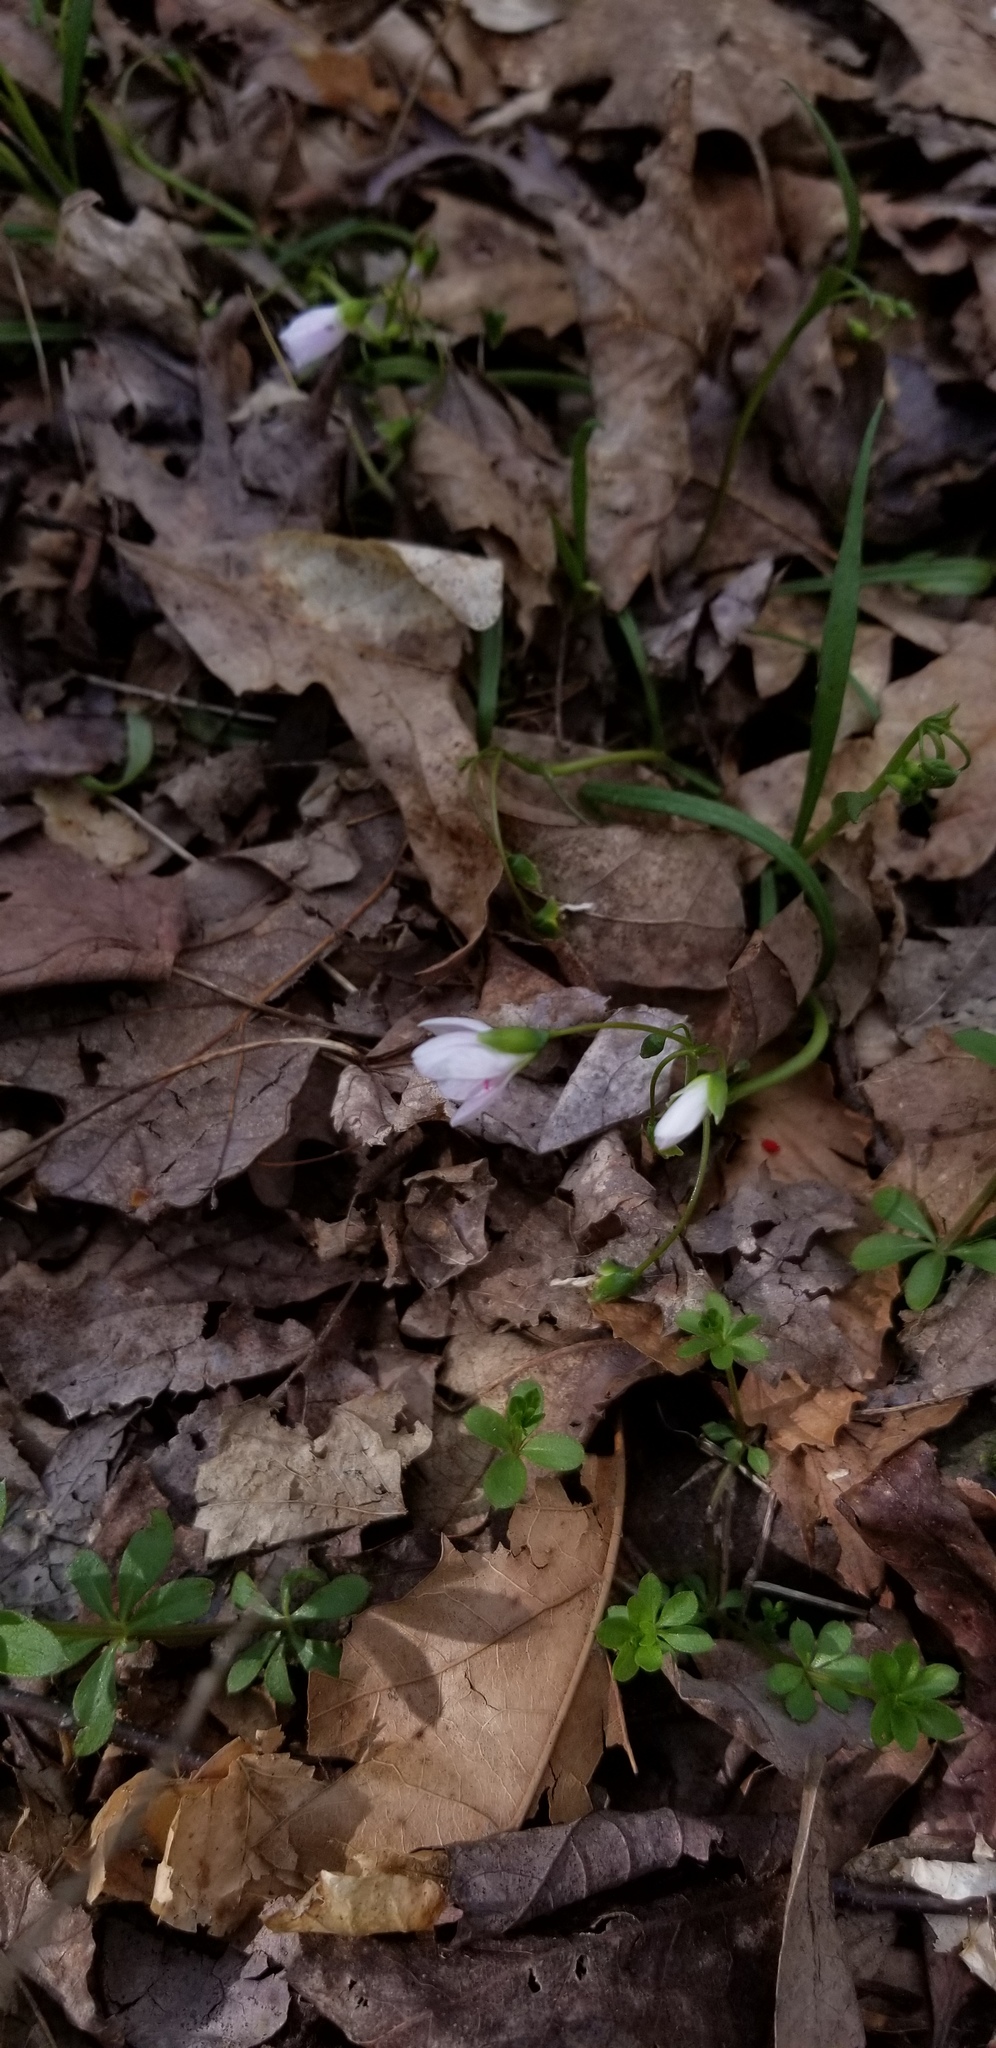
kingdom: Plantae
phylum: Tracheophyta
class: Magnoliopsida
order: Caryophyllales
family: Montiaceae
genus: Claytonia
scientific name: Claytonia virginica
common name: Virginia springbeauty
